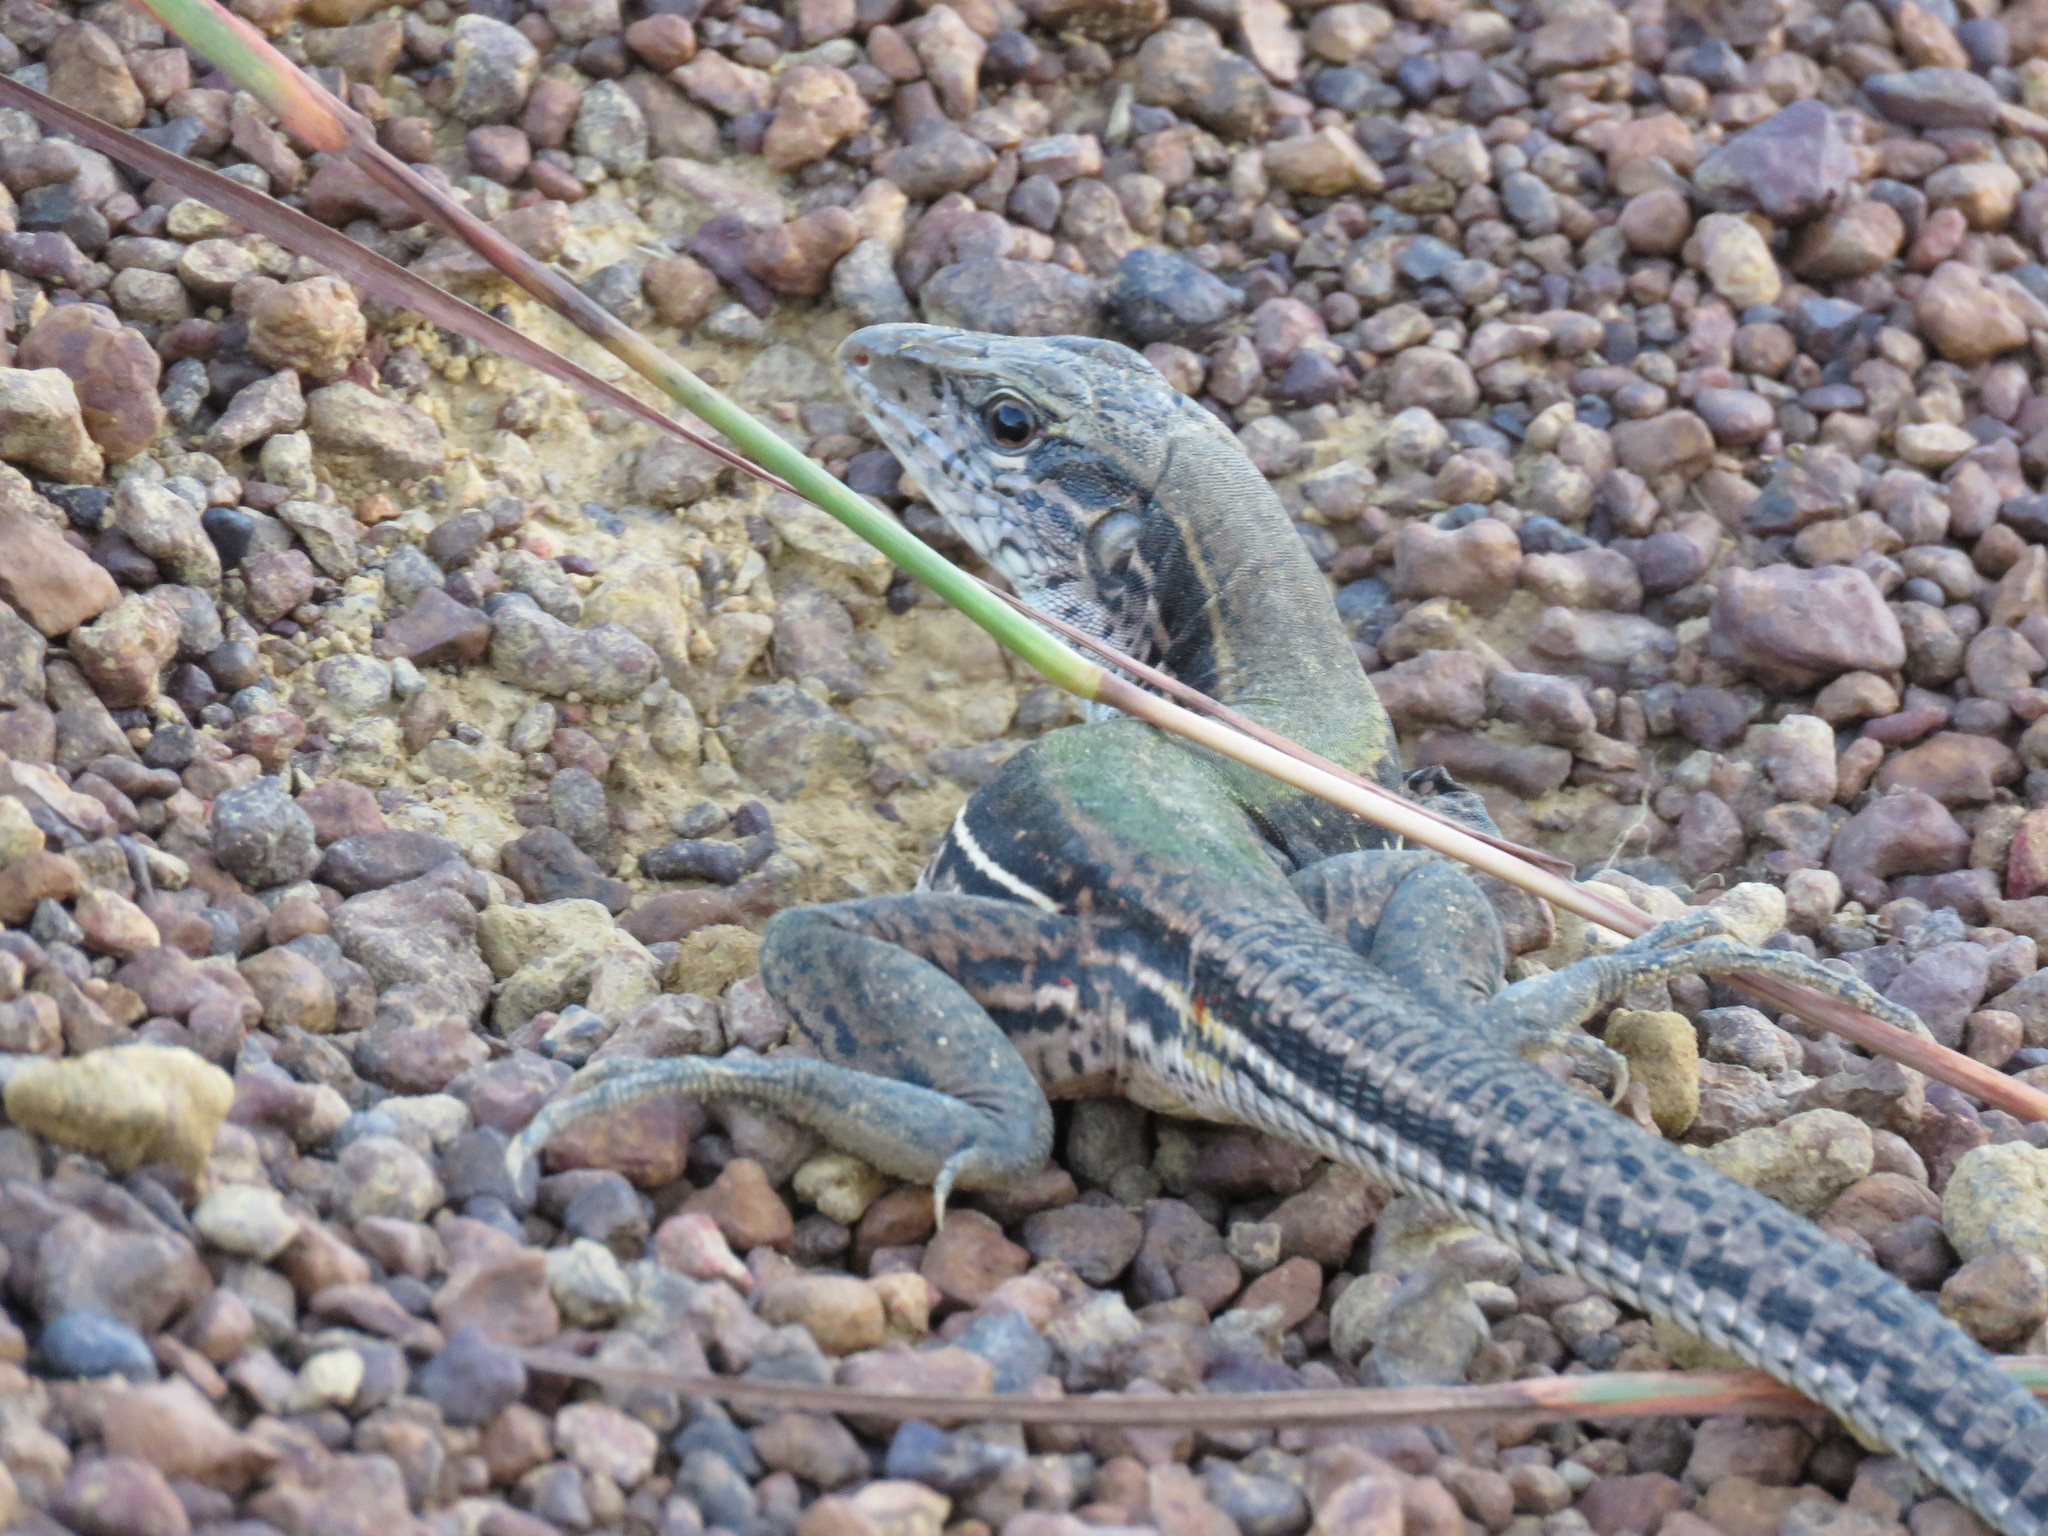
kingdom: Animalia
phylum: Chordata
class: Squamata
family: Teiidae
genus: Ameiva
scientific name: Ameiva ameiva
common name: Giant ameiva
